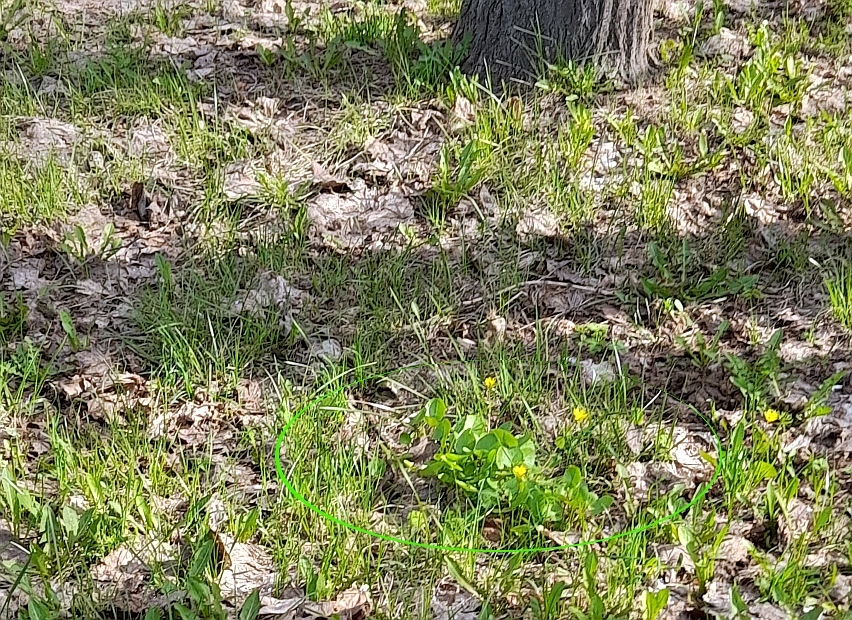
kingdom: Plantae
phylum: Tracheophyta
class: Magnoliopsida
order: Ranunculales
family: Ranunculaceae
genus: Ficaria
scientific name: Ficaria verna
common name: Lesser celandine
